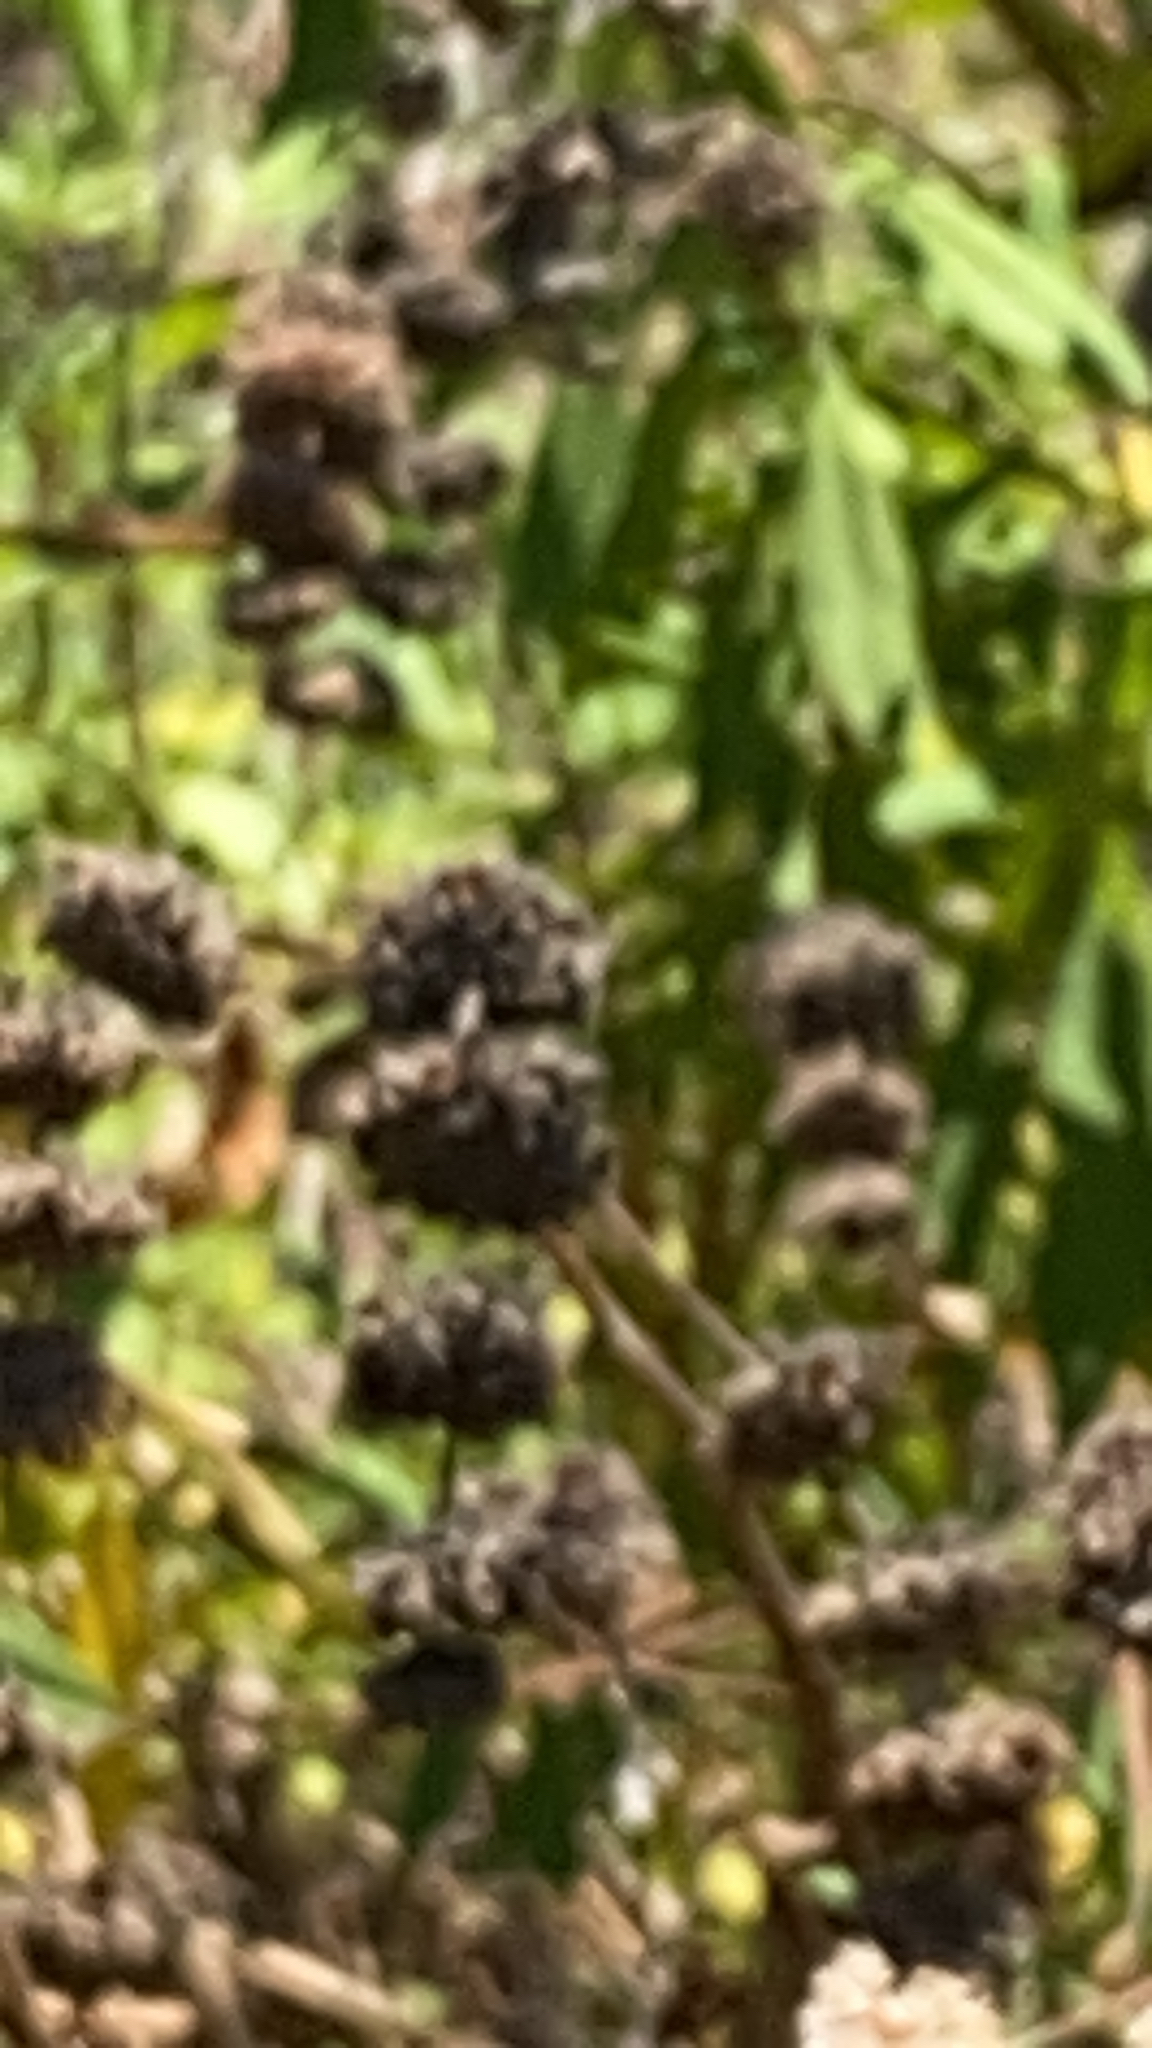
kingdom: Plantae
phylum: Tracheophyta
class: Magnoliopsida
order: Lamiales
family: Lamiaceae
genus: Salvia
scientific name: Salvia mellifera
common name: Black sage
